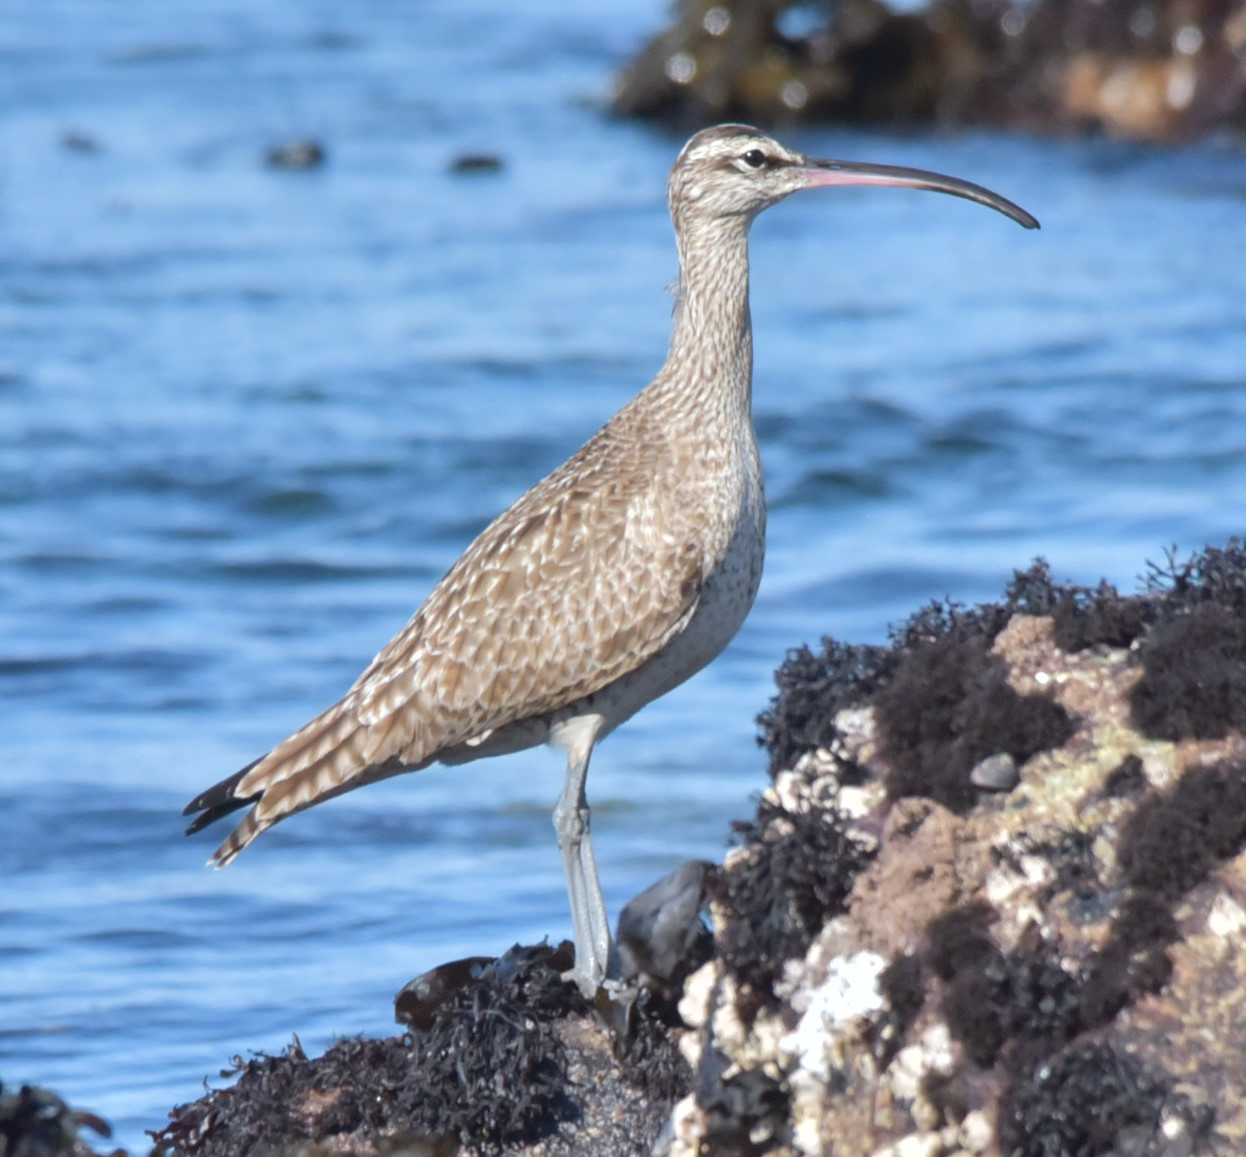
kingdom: Animalia
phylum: Chordata
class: Aves
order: Charadriiformes
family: Scolopacidae
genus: Numenius
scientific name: Numenius phaeopus
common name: Whimbrel
